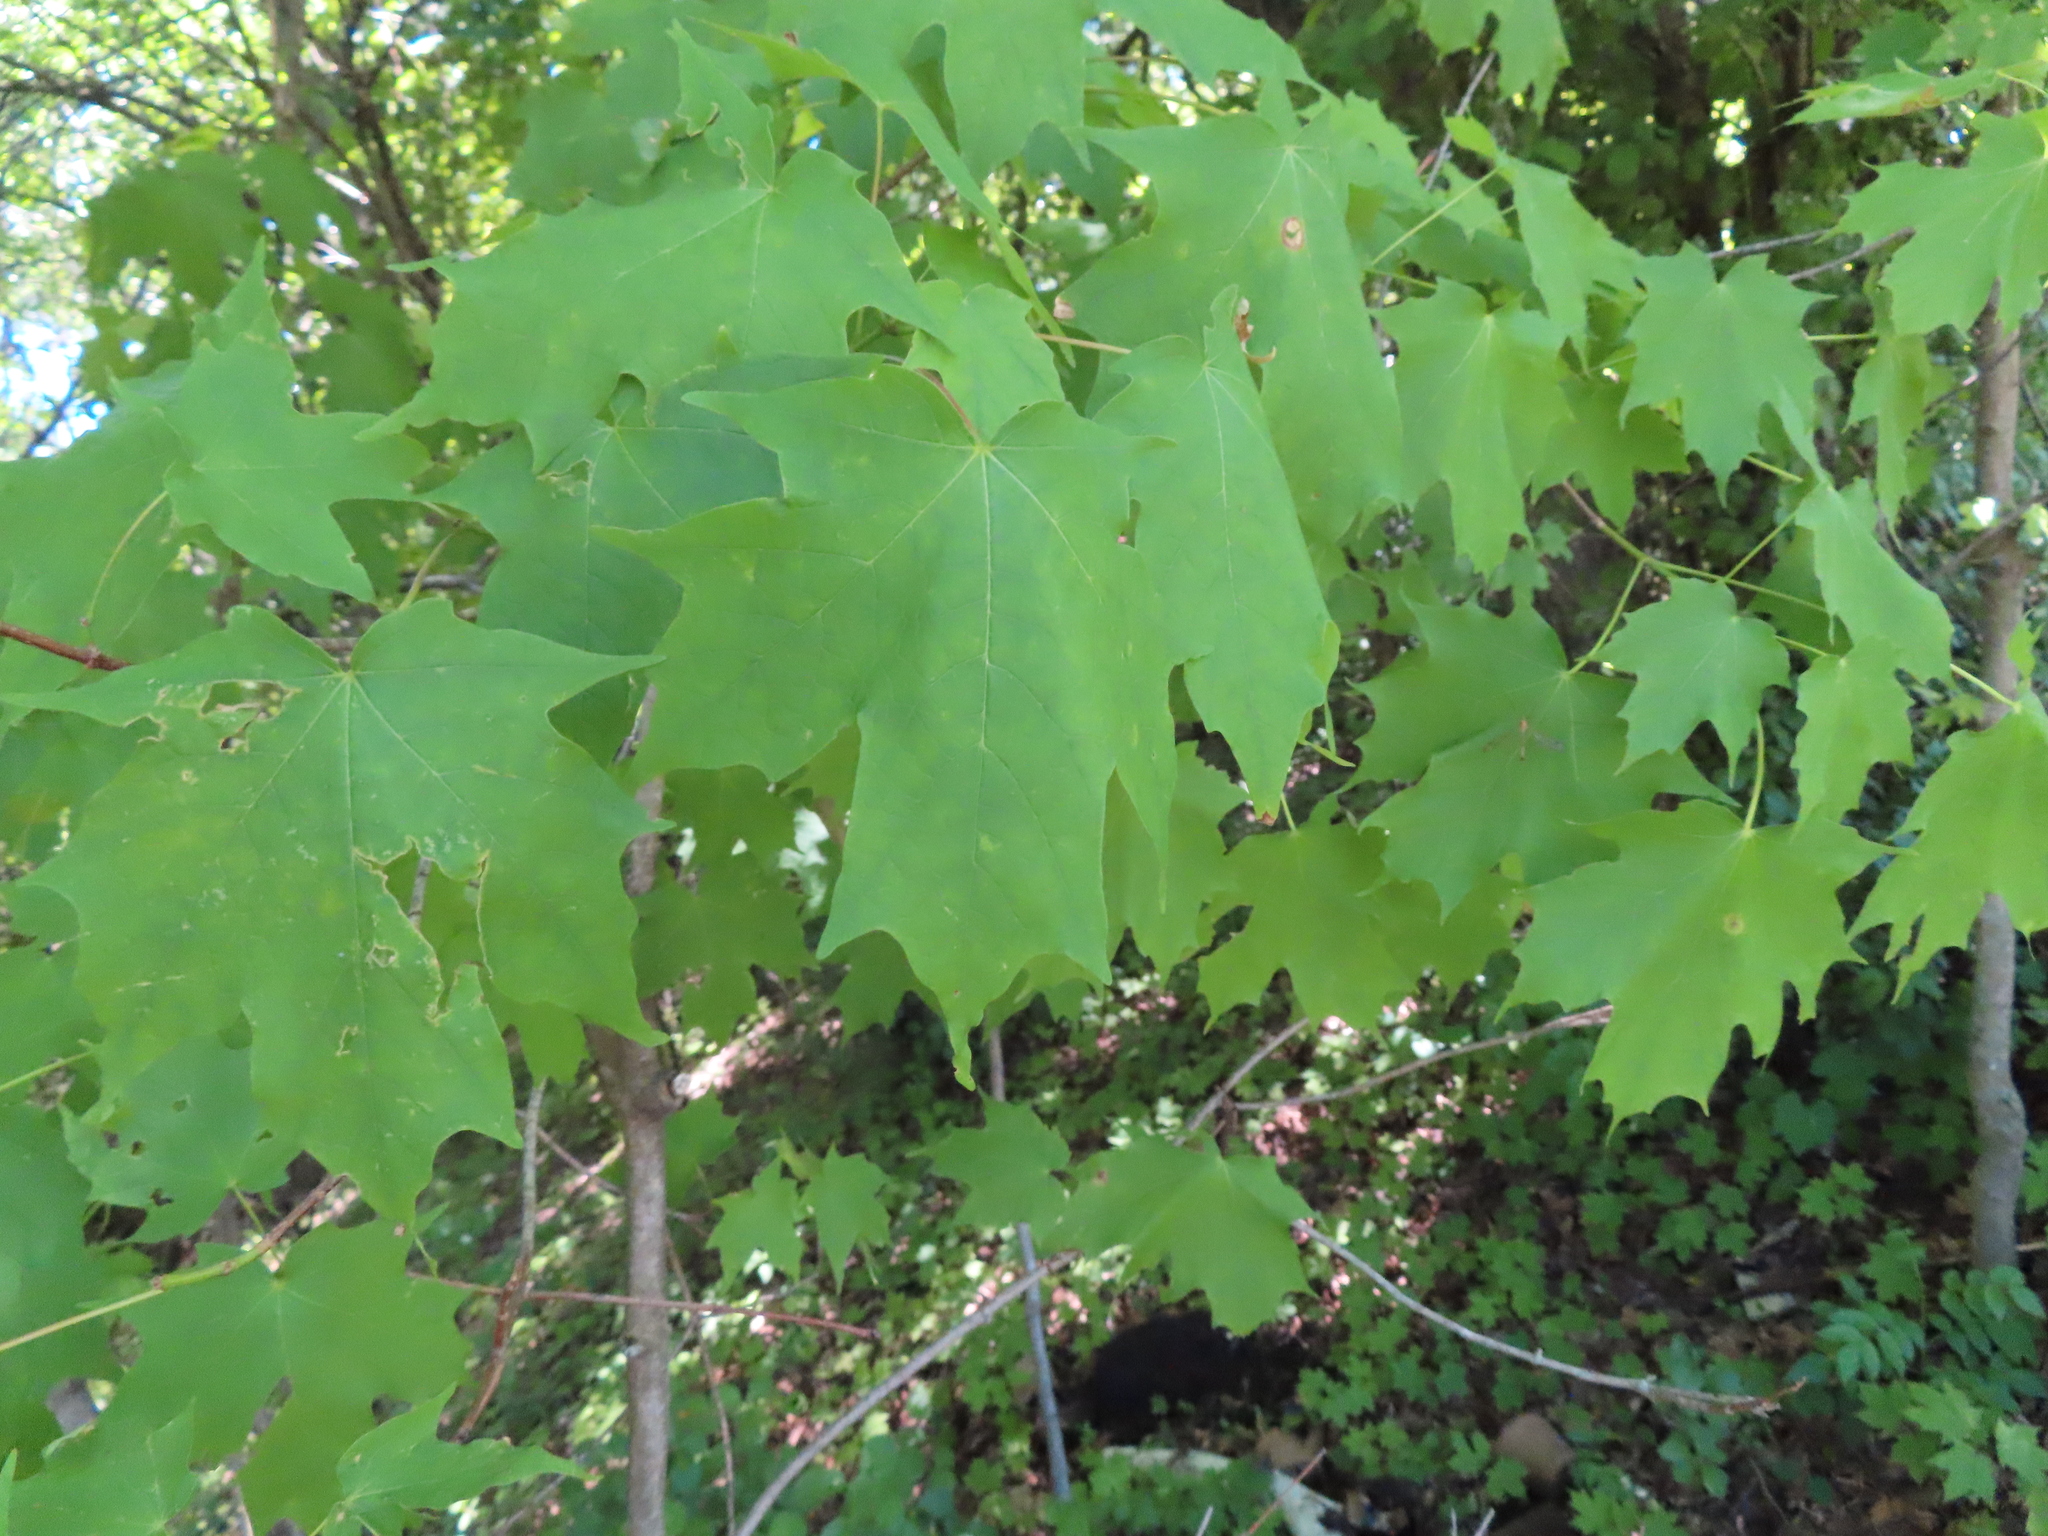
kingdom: Plantae
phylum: Tracheophyta
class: Magnoliopsida
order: Sapindales
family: Sapindaceae
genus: Acer
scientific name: Acer saccharum
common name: Sugar maple
